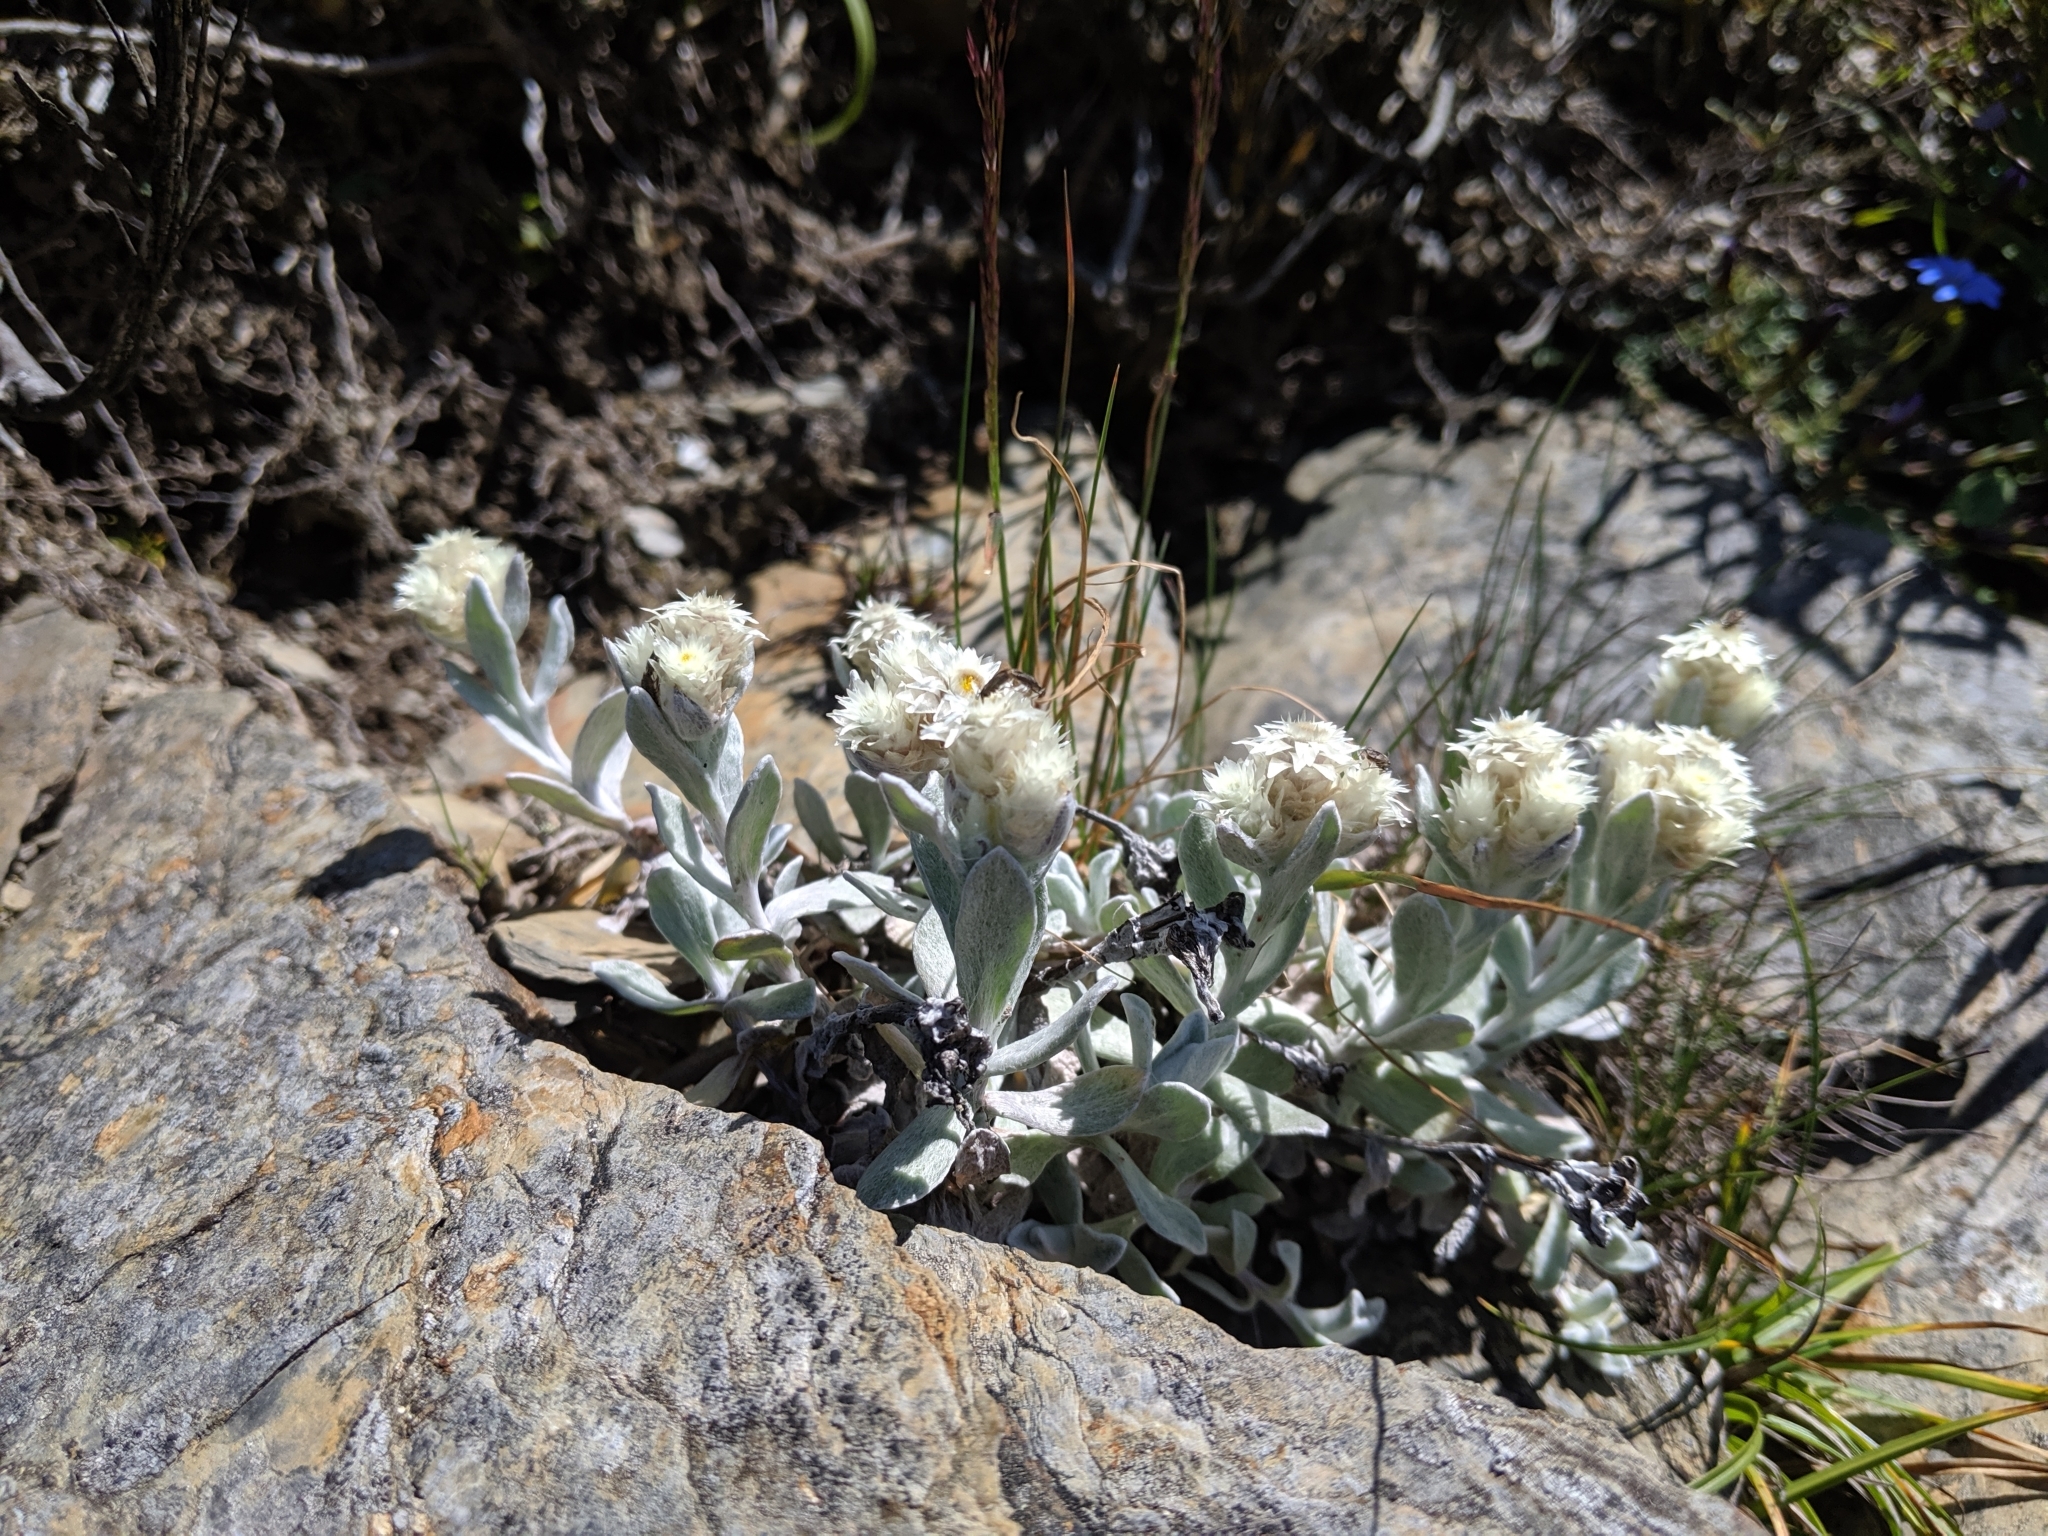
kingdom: Plantae
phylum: Tracheophyta
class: Magnoliopsida
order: Asterales
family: Asteraceae
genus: Anaphalis
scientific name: Anaphalis nepalensis
